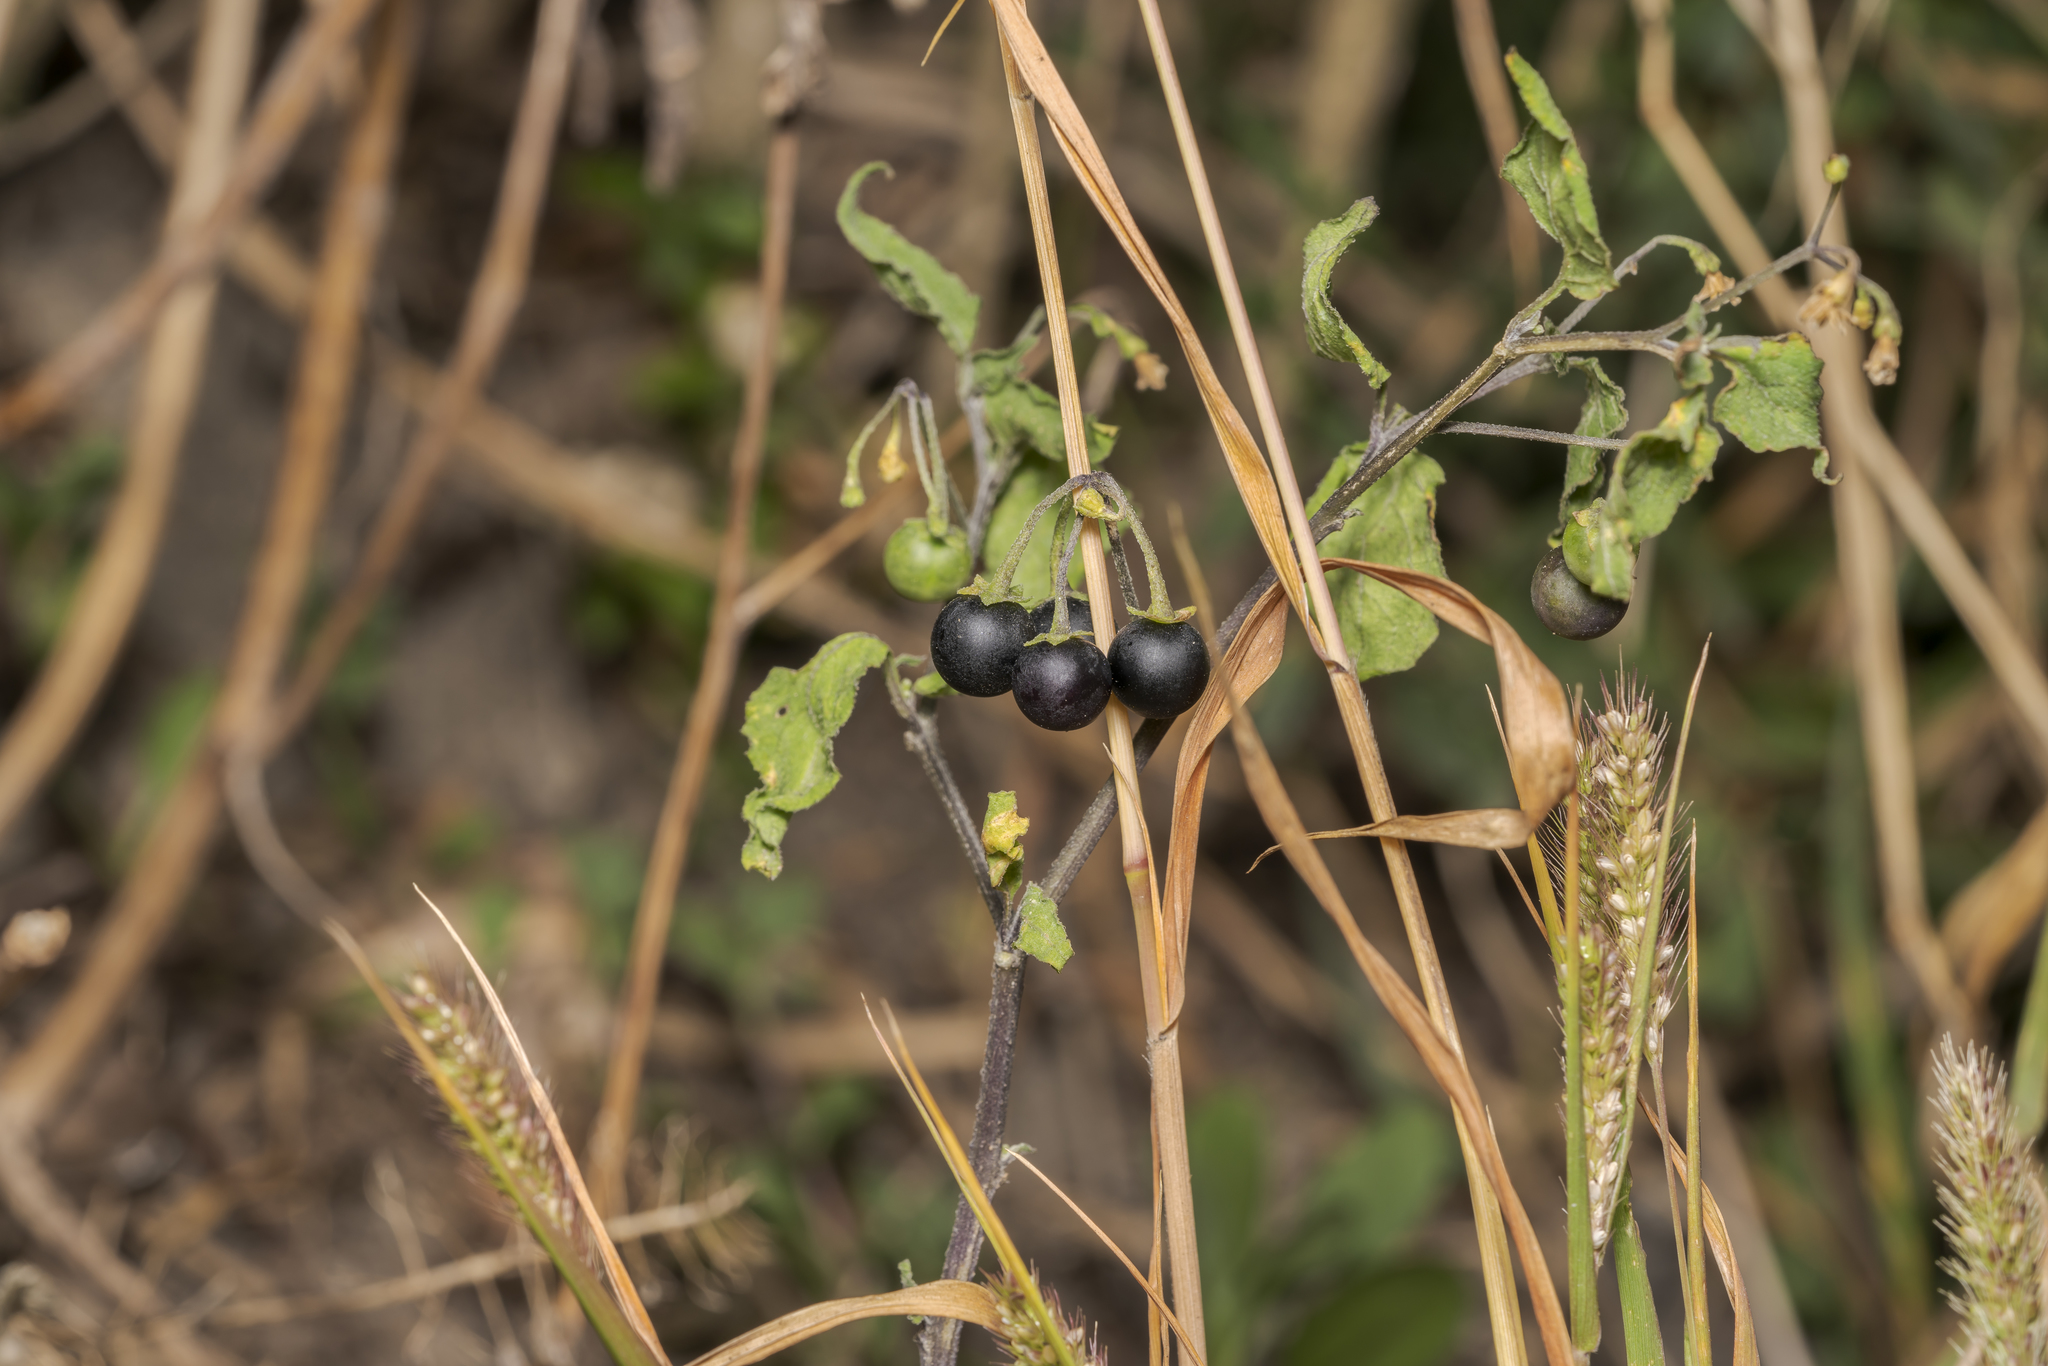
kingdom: Plantae
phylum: Tracheophyta
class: Magnoliopsida
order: Solanales
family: Solanaceae
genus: Solanum
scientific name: Solanum nigrum
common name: Black nightshade
